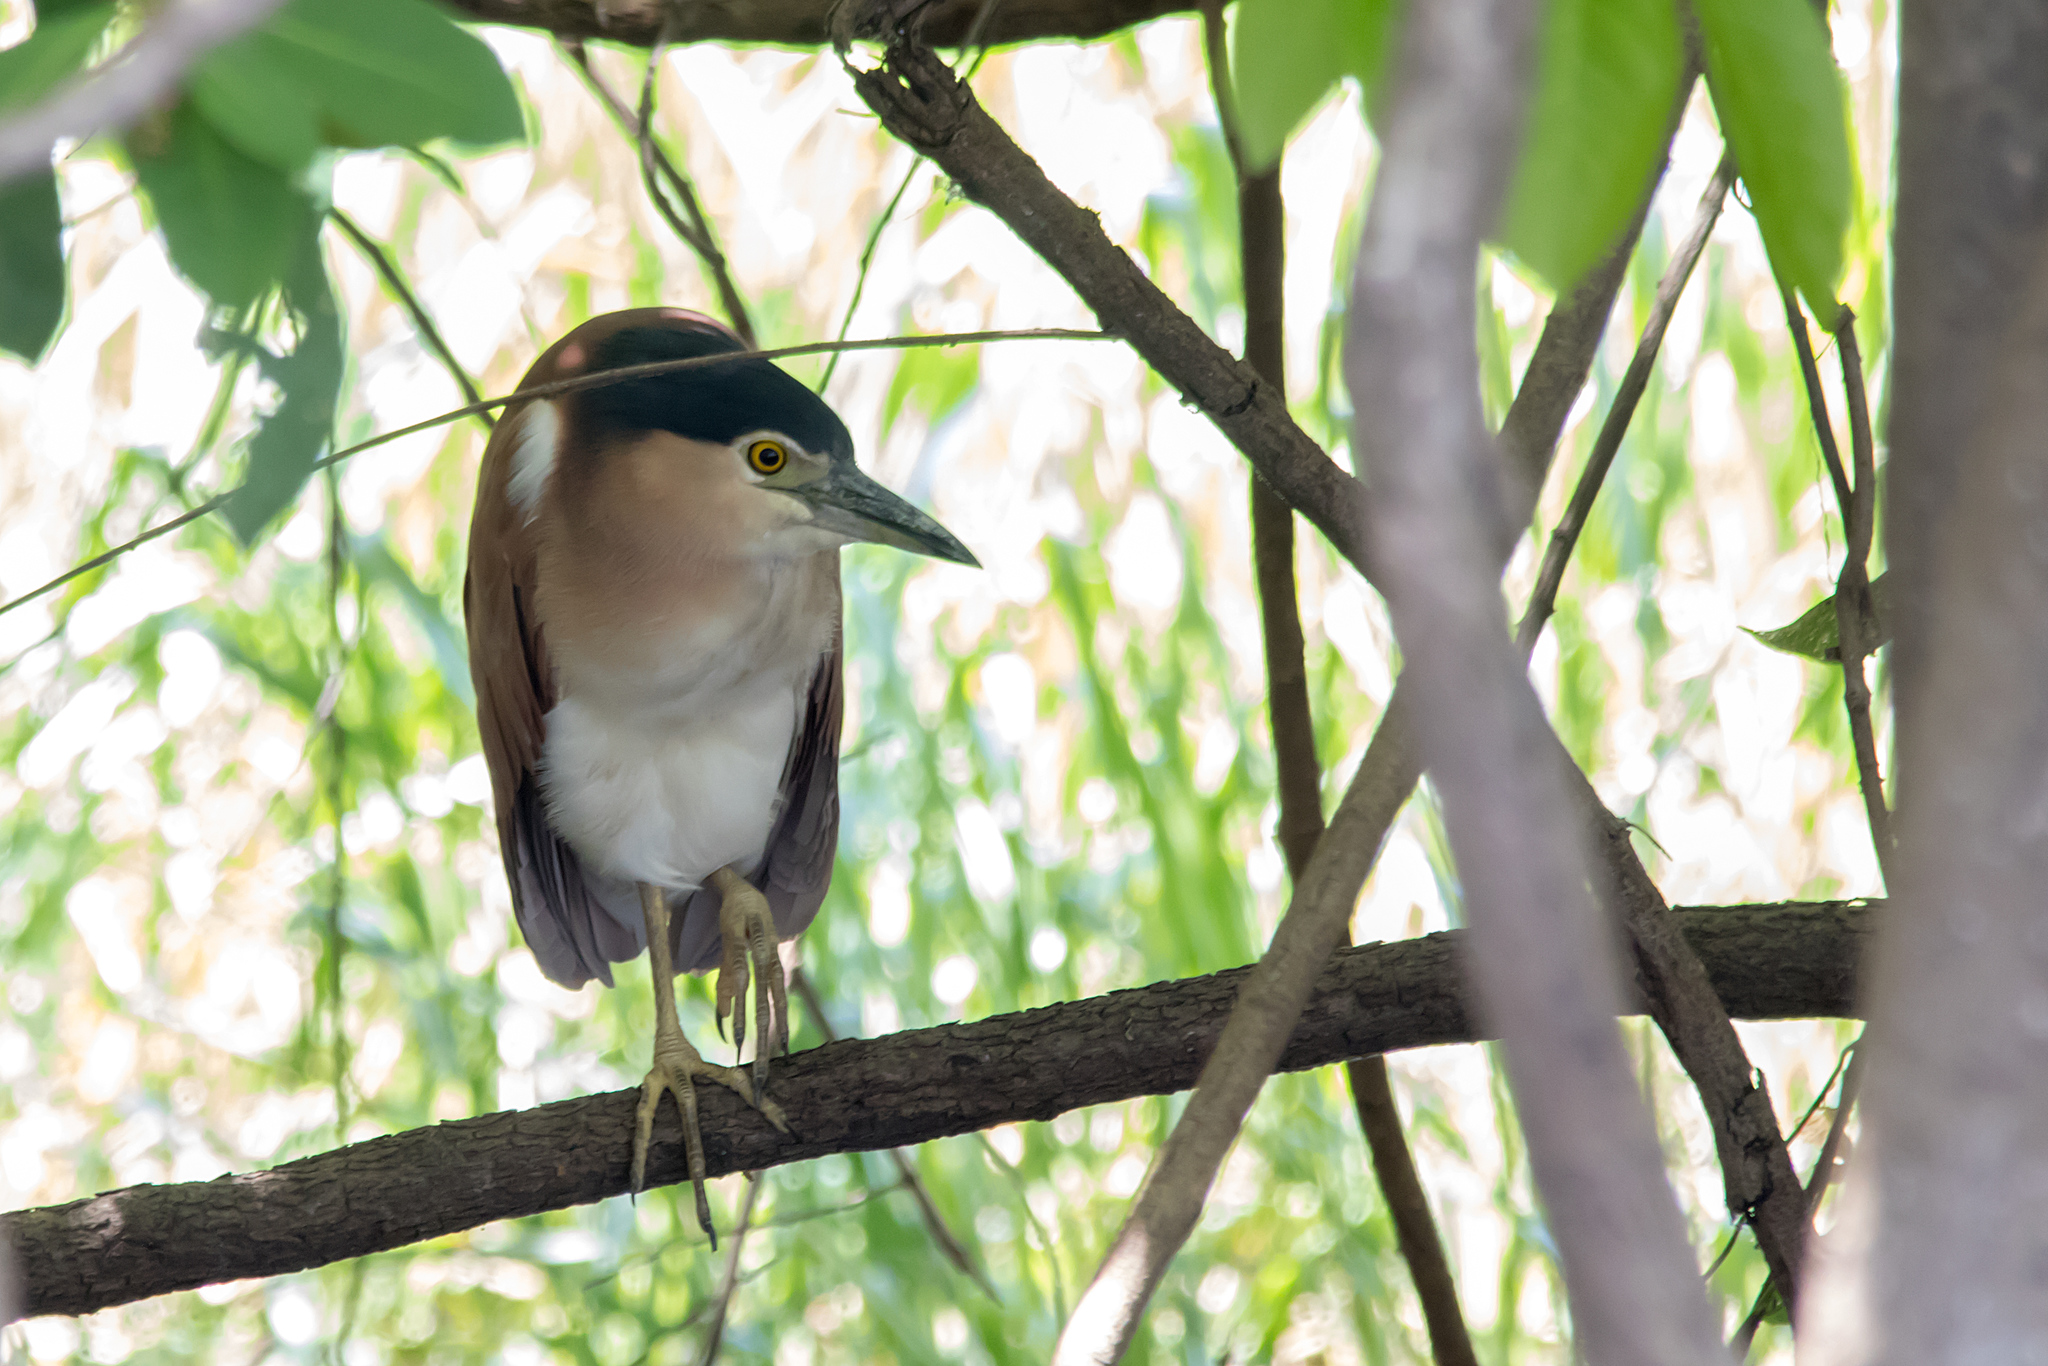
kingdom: Animalia
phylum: Chordata
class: Aves
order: Pelecaniformes
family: Ardeidae
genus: Nycticorax
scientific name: Nycticorax caledonicus
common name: Rufous night-heron
